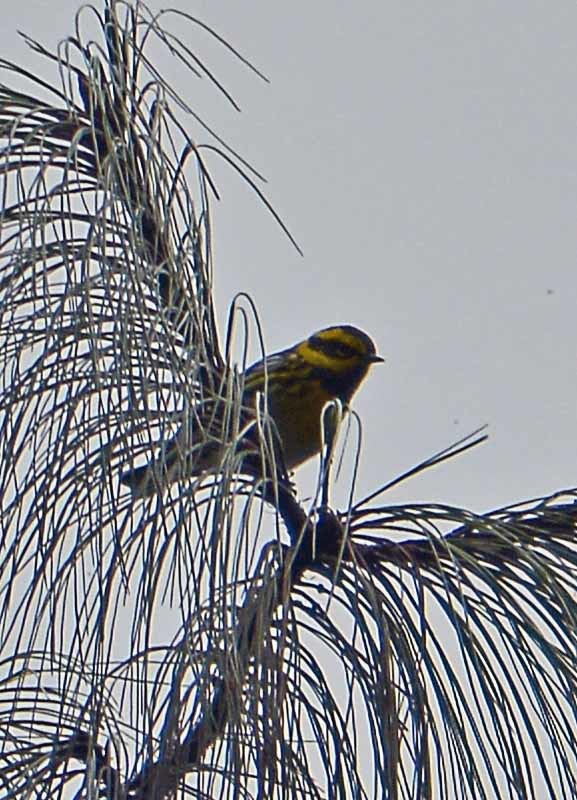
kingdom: Animalia
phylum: Chordata
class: Aves
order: Passeriformes
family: Parulidae
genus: Setophaga
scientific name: Setophaga townsendi
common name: Townsend's warbler
